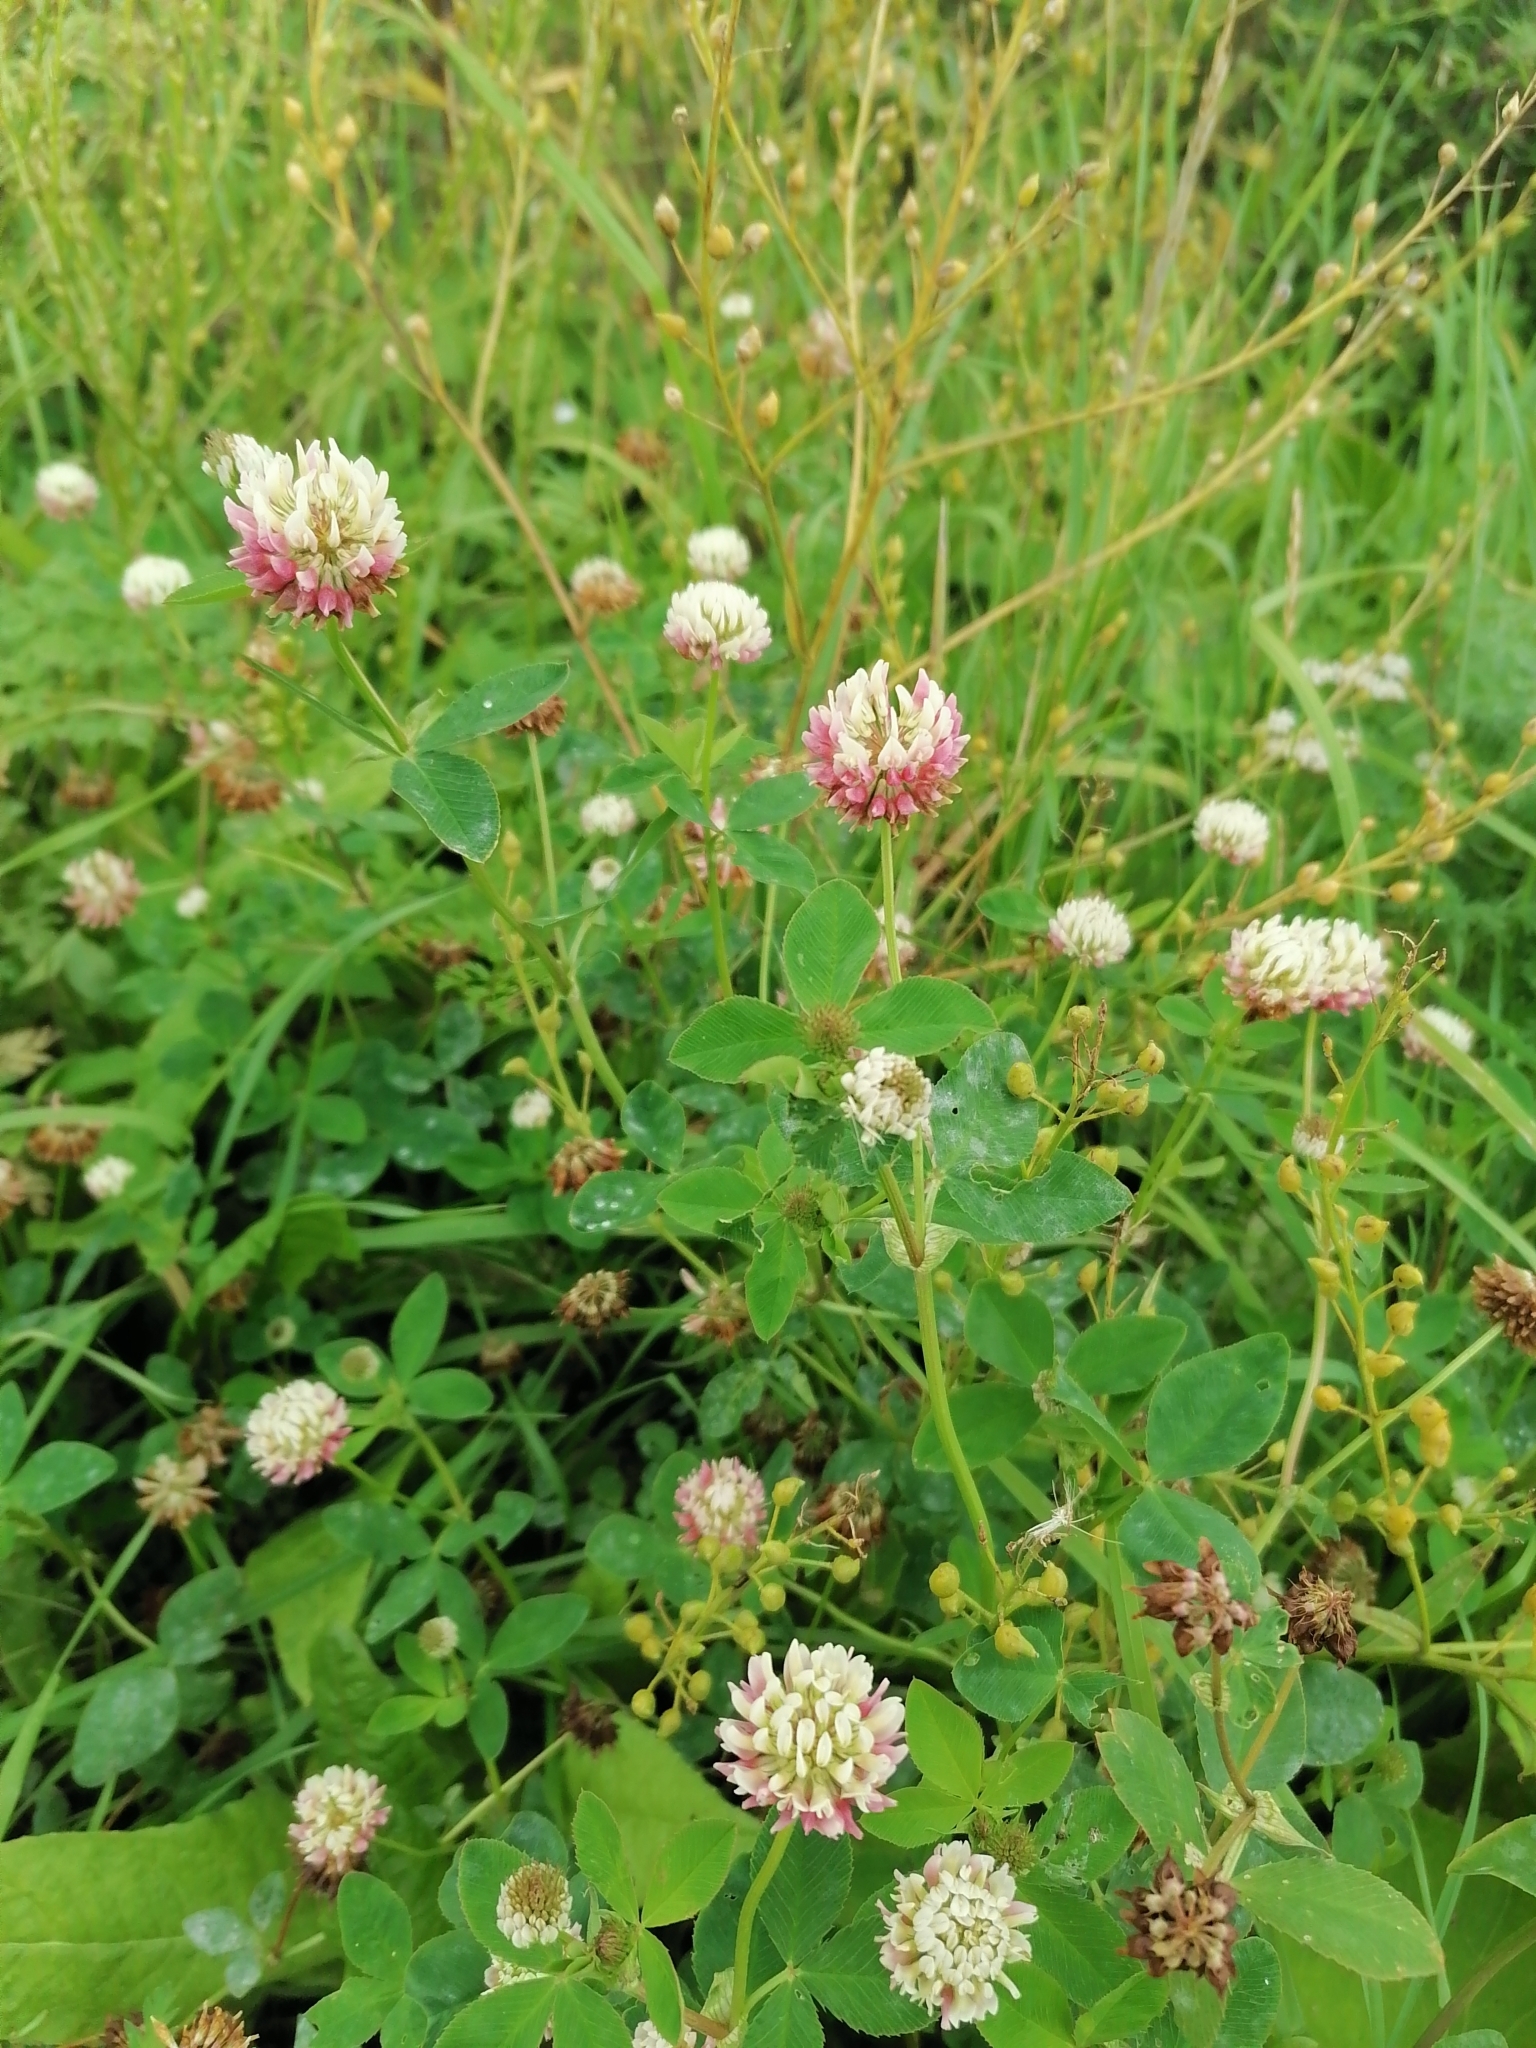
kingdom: Plantae
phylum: Tracheophyta
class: Magnoliopsida
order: Fabales
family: Fabaceae
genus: Trifolium
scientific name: Trifolium hybridum
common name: Alsike clover
